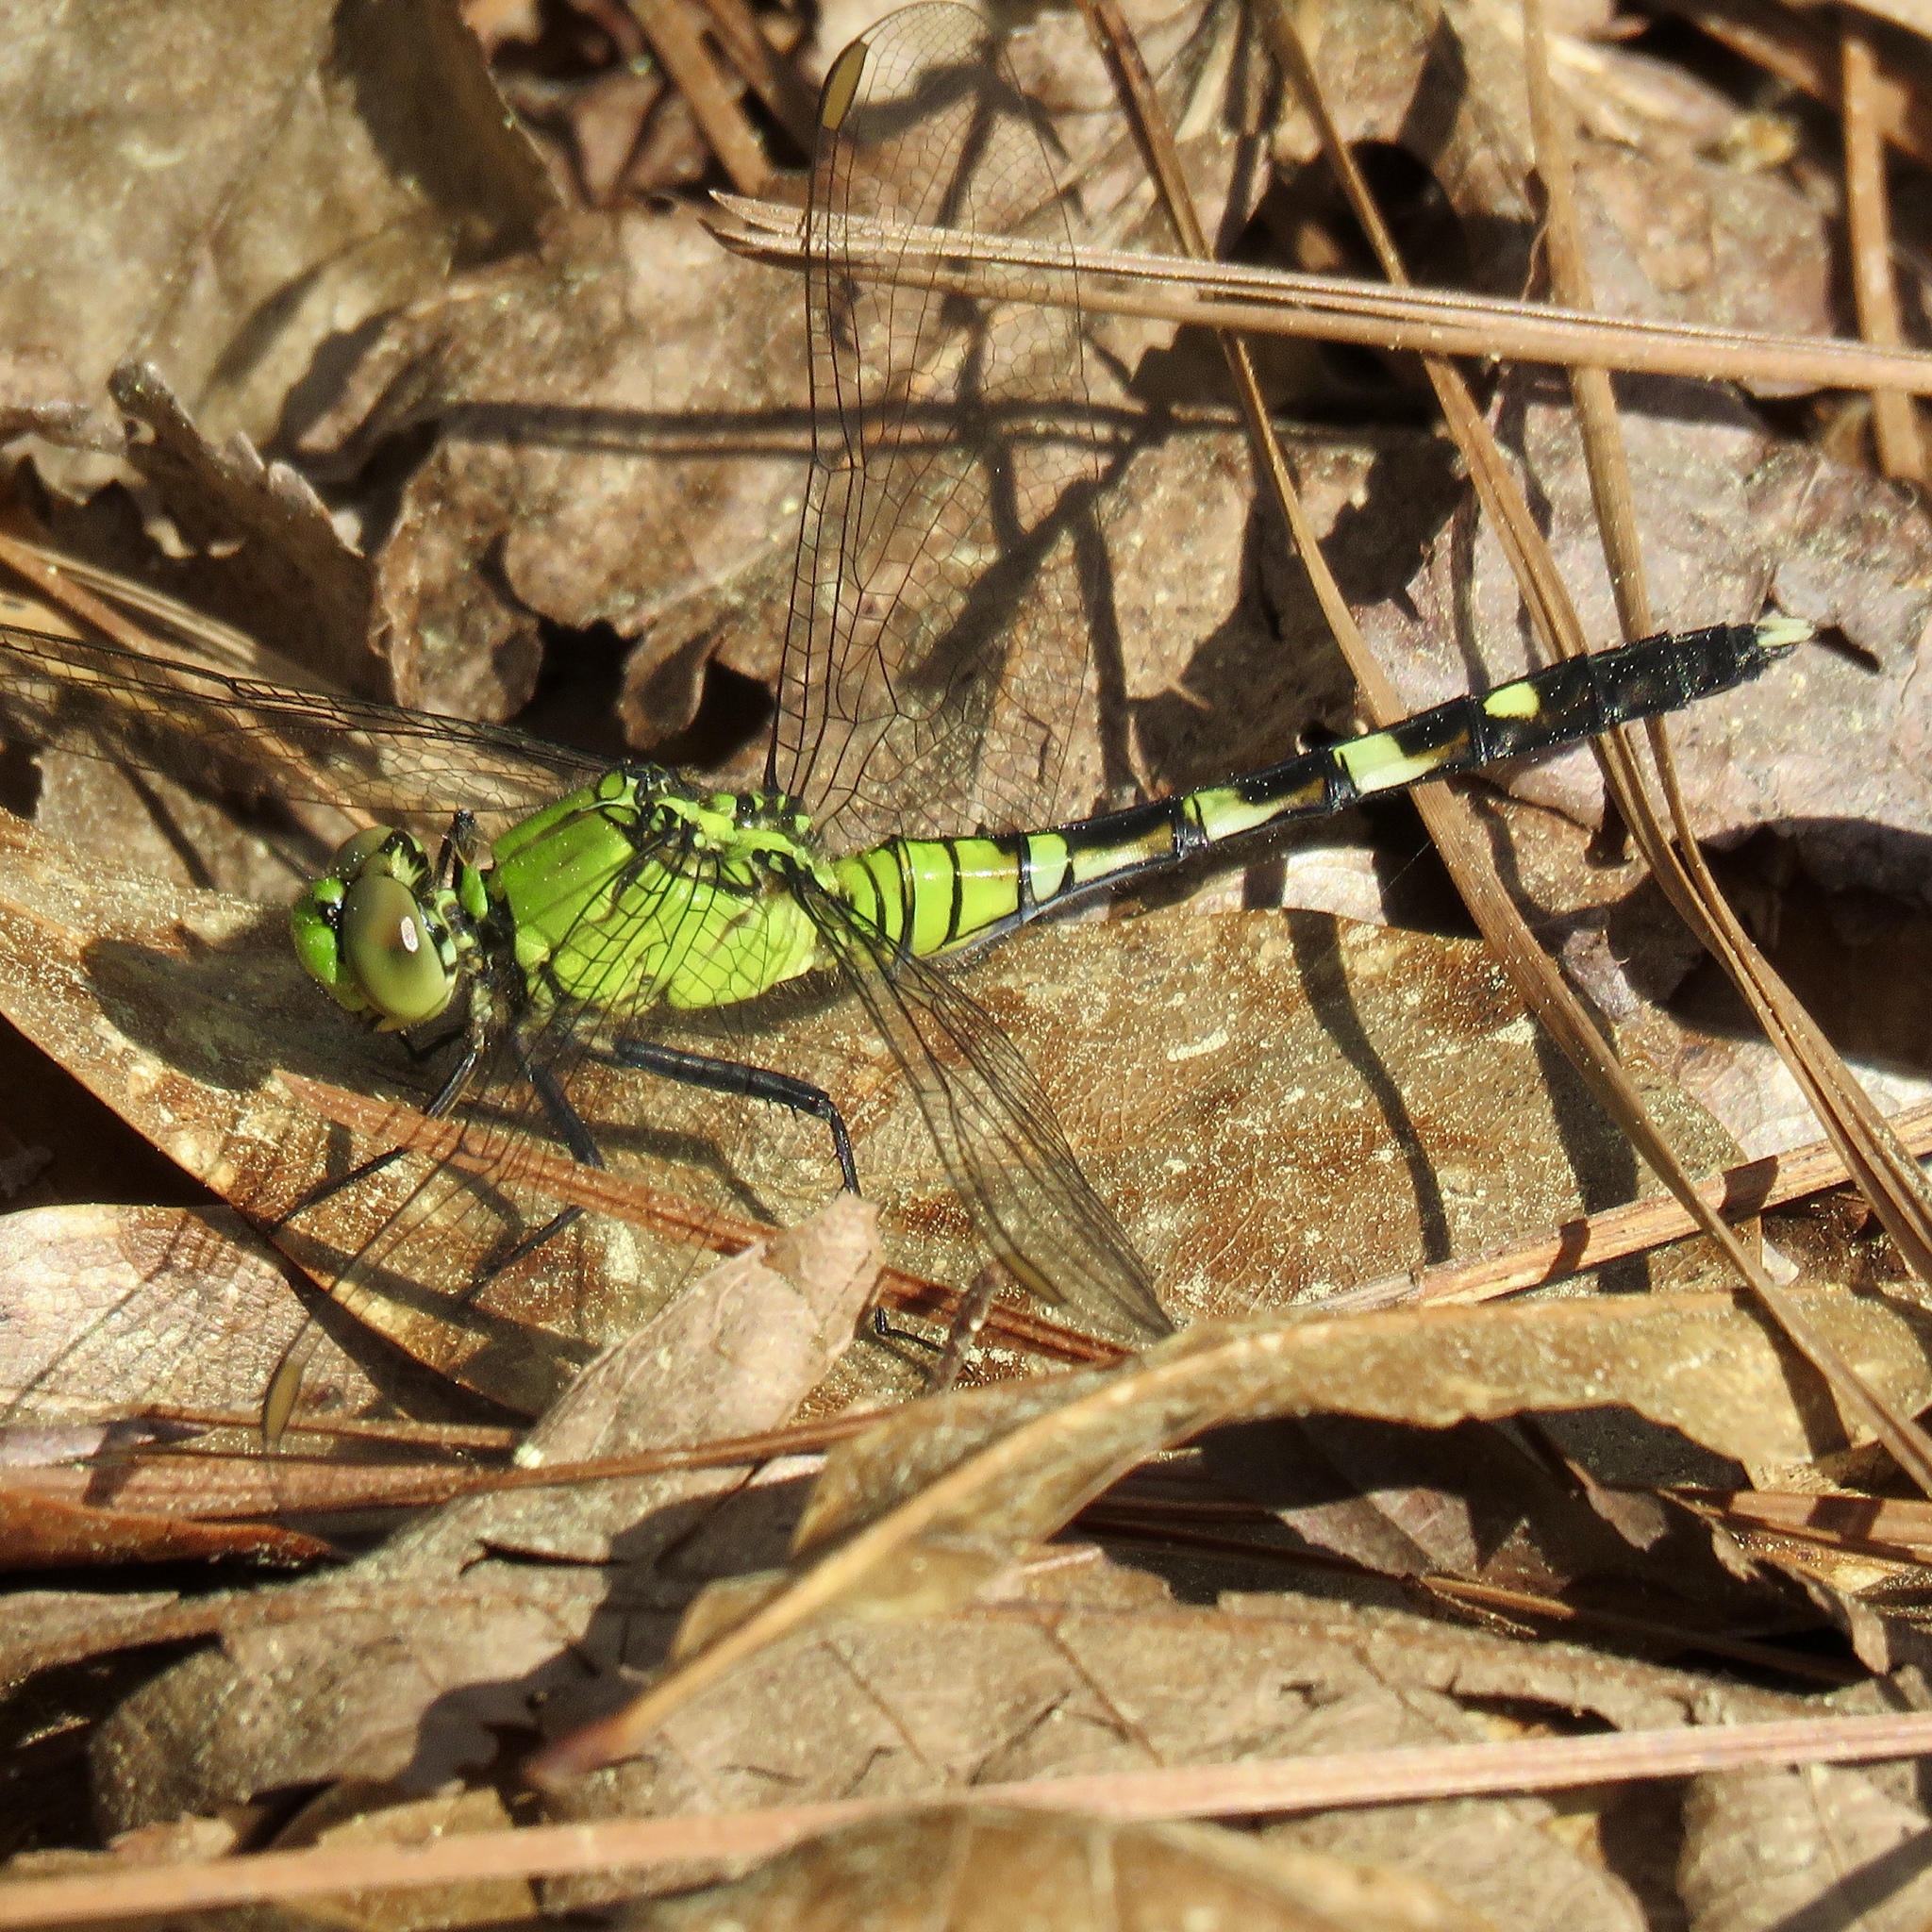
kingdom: Animalia
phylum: Arthropoda
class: Insecta
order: Odonata
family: Libellulidae
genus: Erythemis
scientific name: Erythemis simplicicollis
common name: Eastern pondhawk
